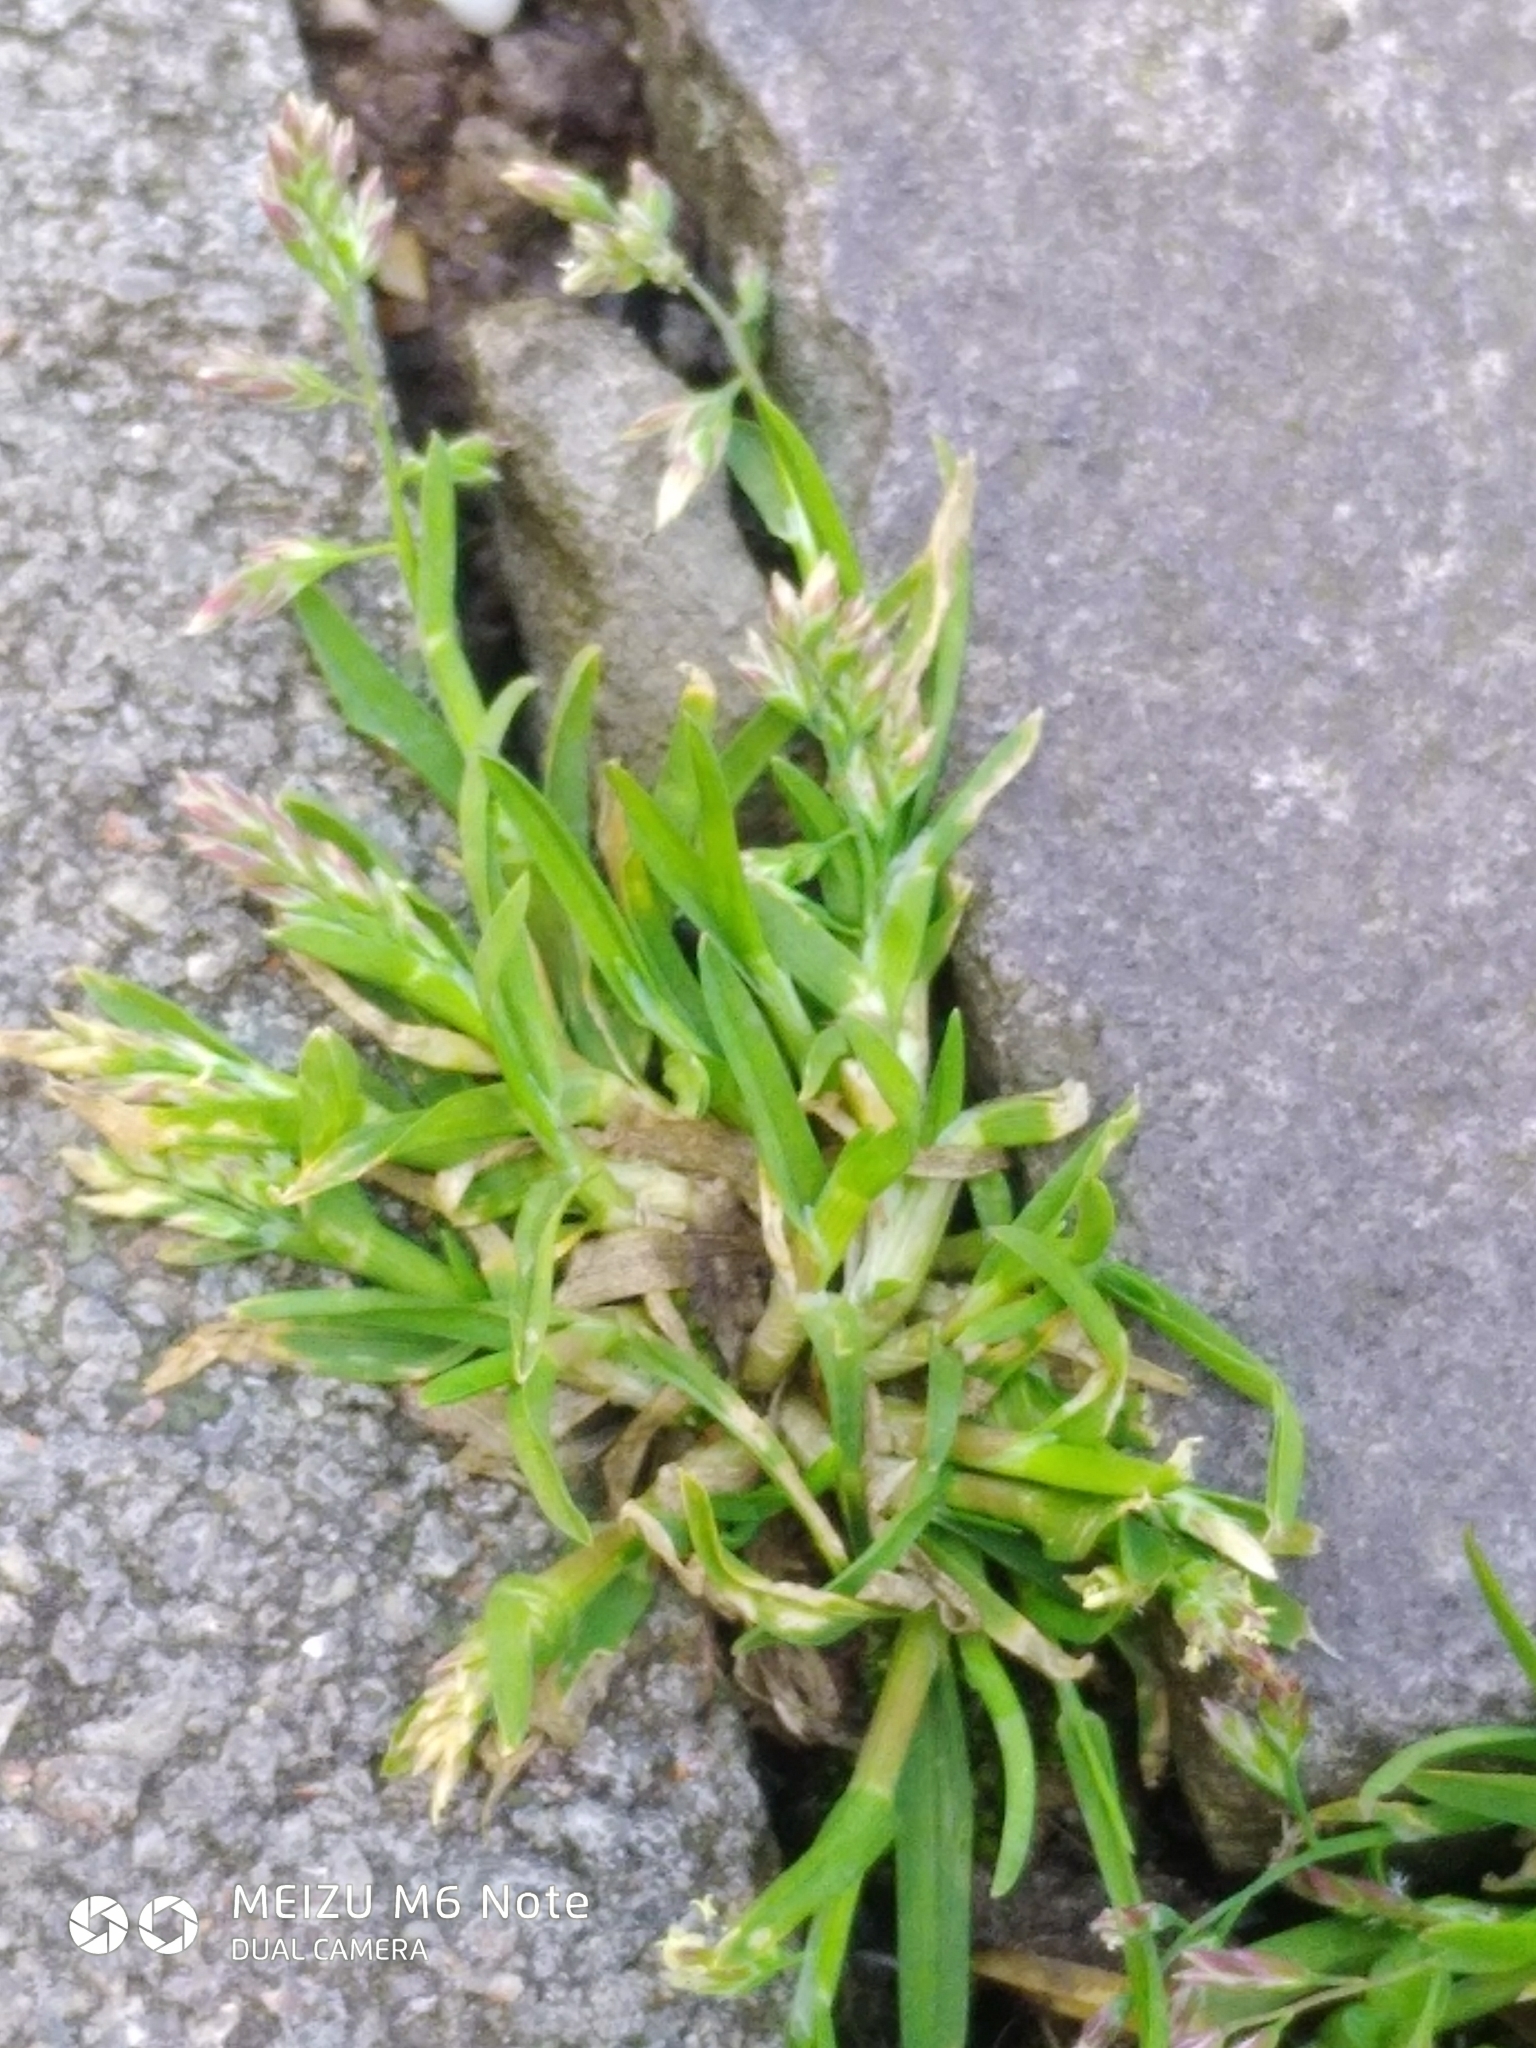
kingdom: Plantae
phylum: Tracheophyta
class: Liliopsida
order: Poales
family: Poaceae
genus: Poa
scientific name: Poa annua
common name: Annual bluegrass
